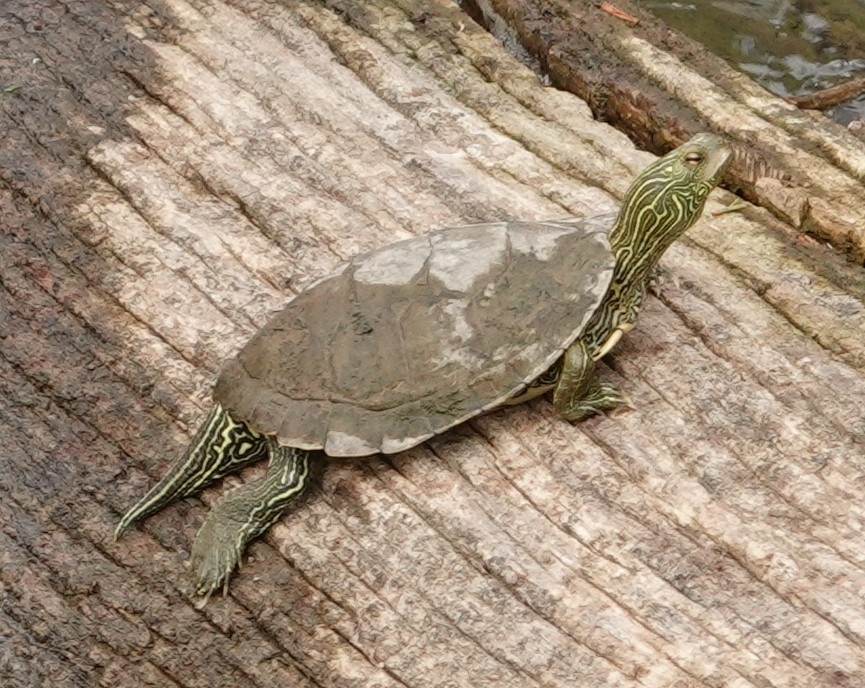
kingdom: Animalia
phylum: Chordata
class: Testudines
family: Emydidae
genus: Graptemys
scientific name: Graptemys geographica
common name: Common map turtle
